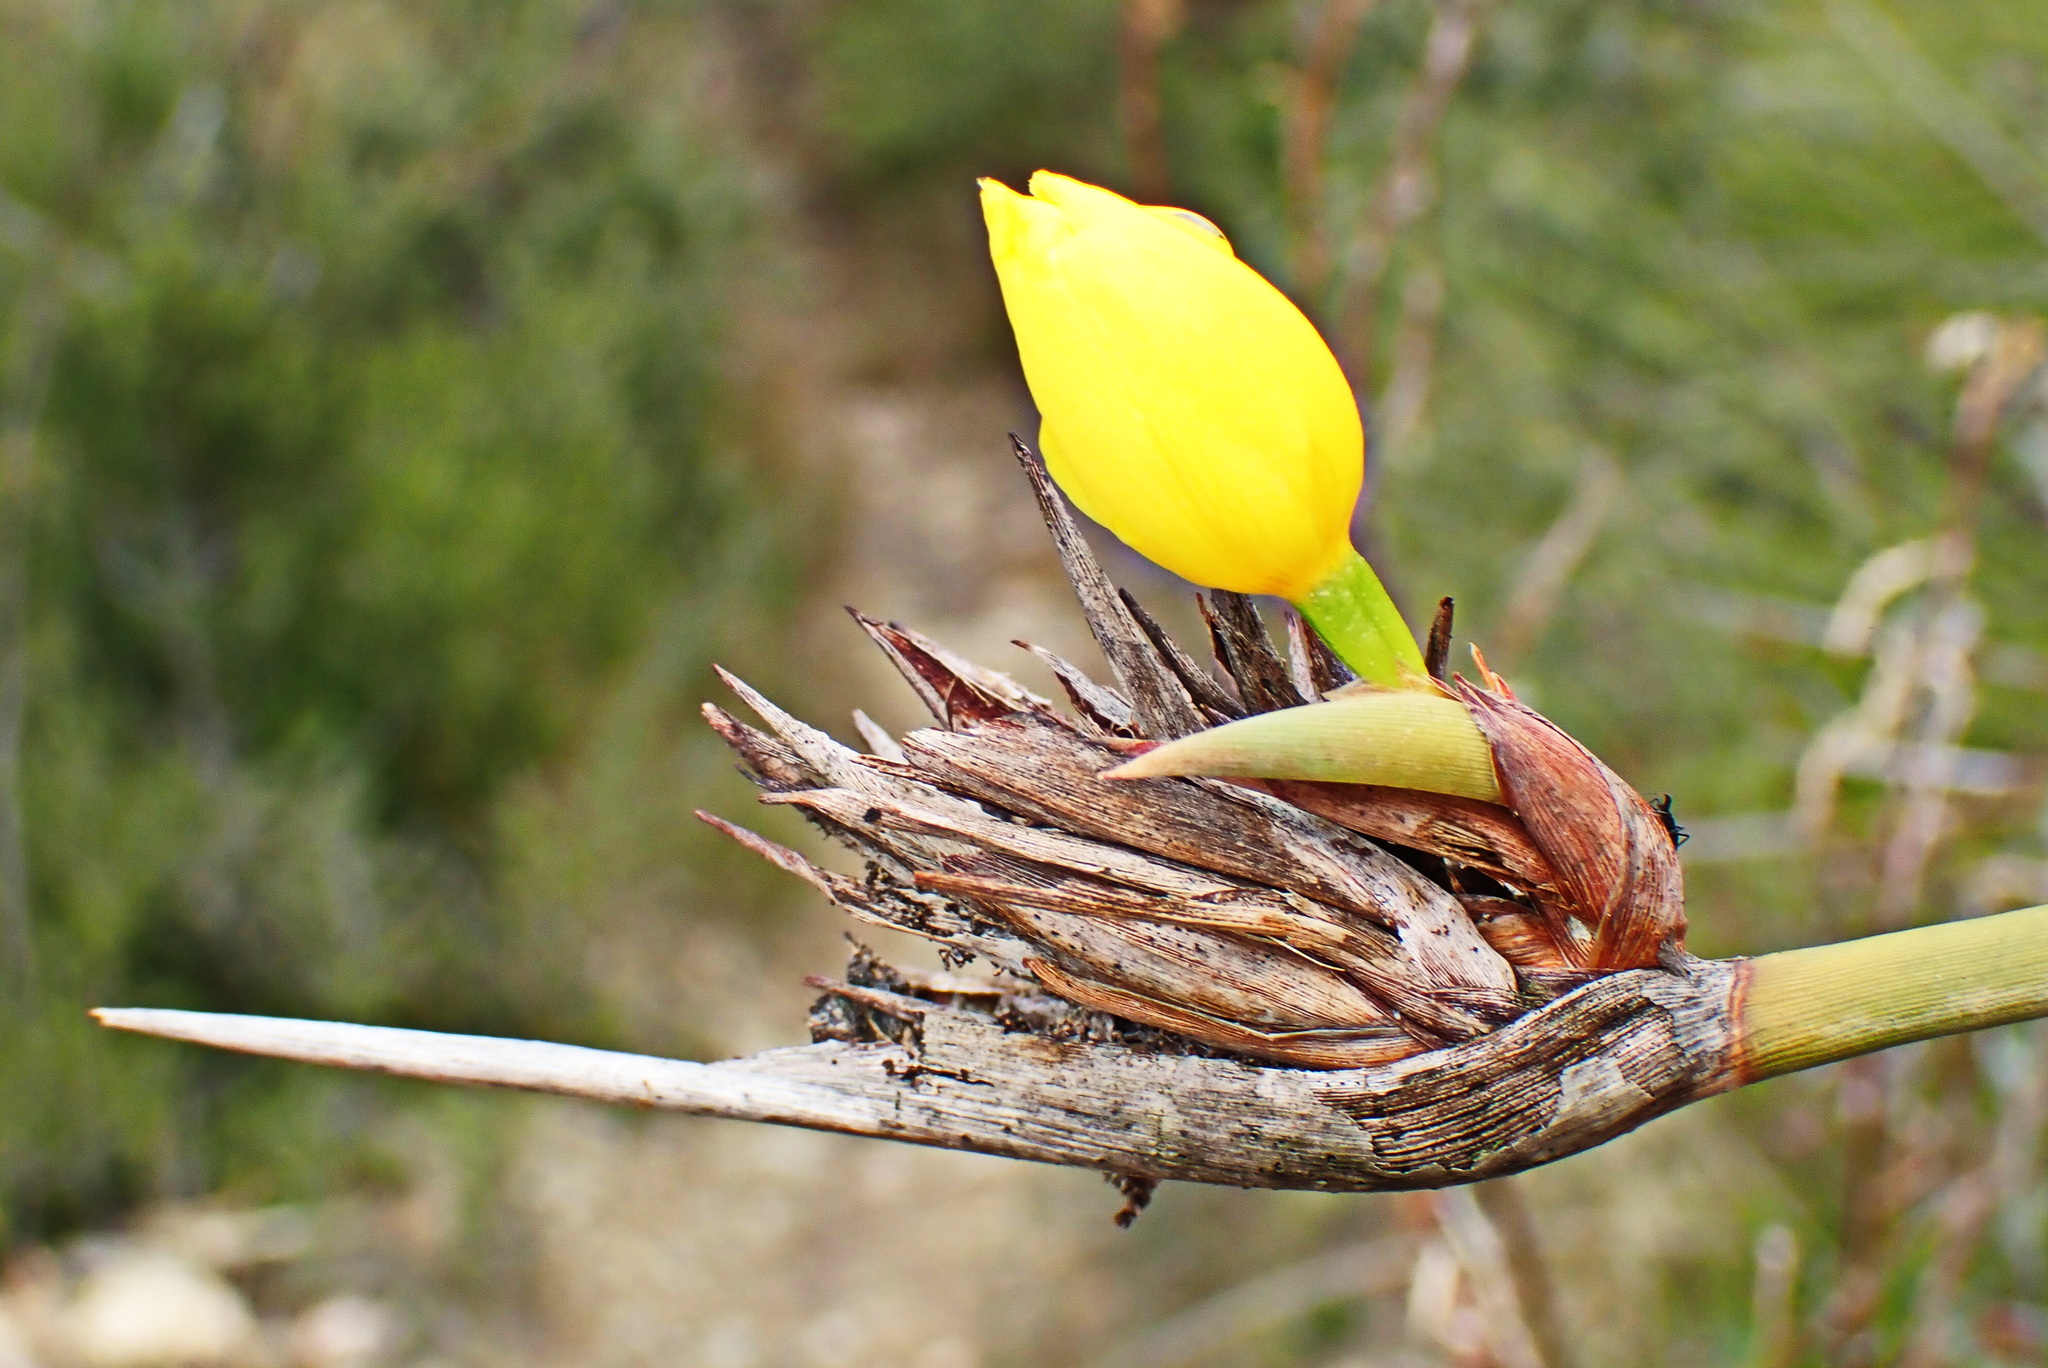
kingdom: Plantae
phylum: Tracheophyta
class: Liliopsida
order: Asparagales
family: Iridaceae
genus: Bobartia
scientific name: Bobartia robusta
